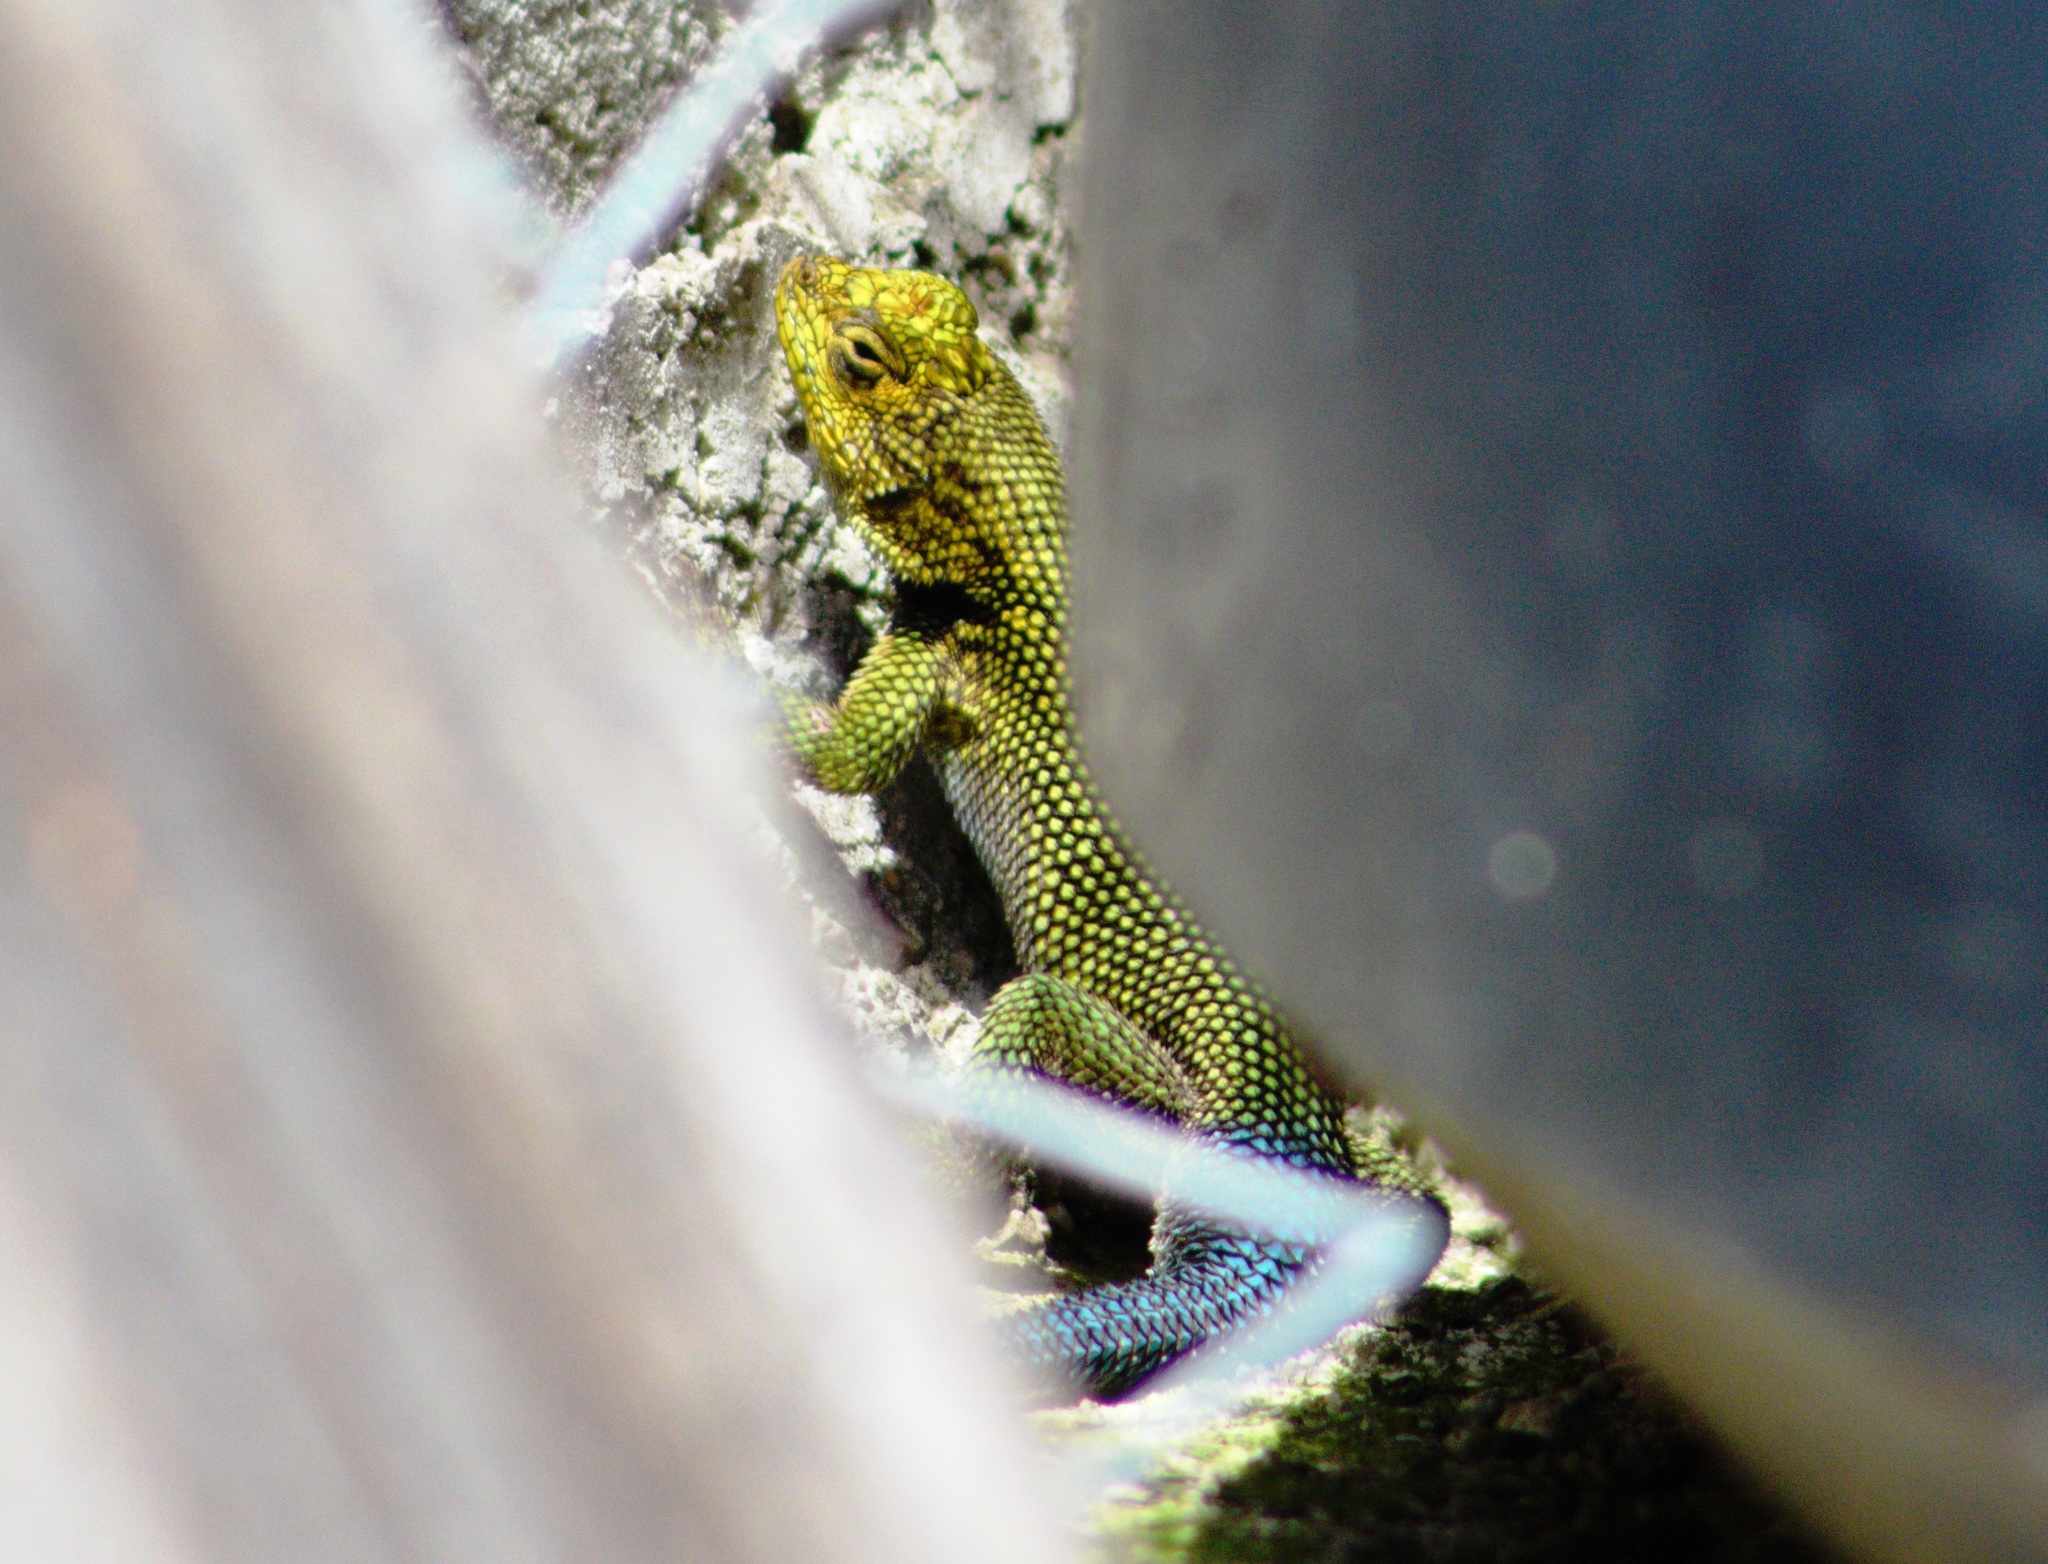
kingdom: Animalia
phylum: Chordata
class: Squamata
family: Phrynosomatidae
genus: Sceloporus
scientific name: Sceloporus taeniocnemis
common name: Guatemalan emerald spiny lizard
